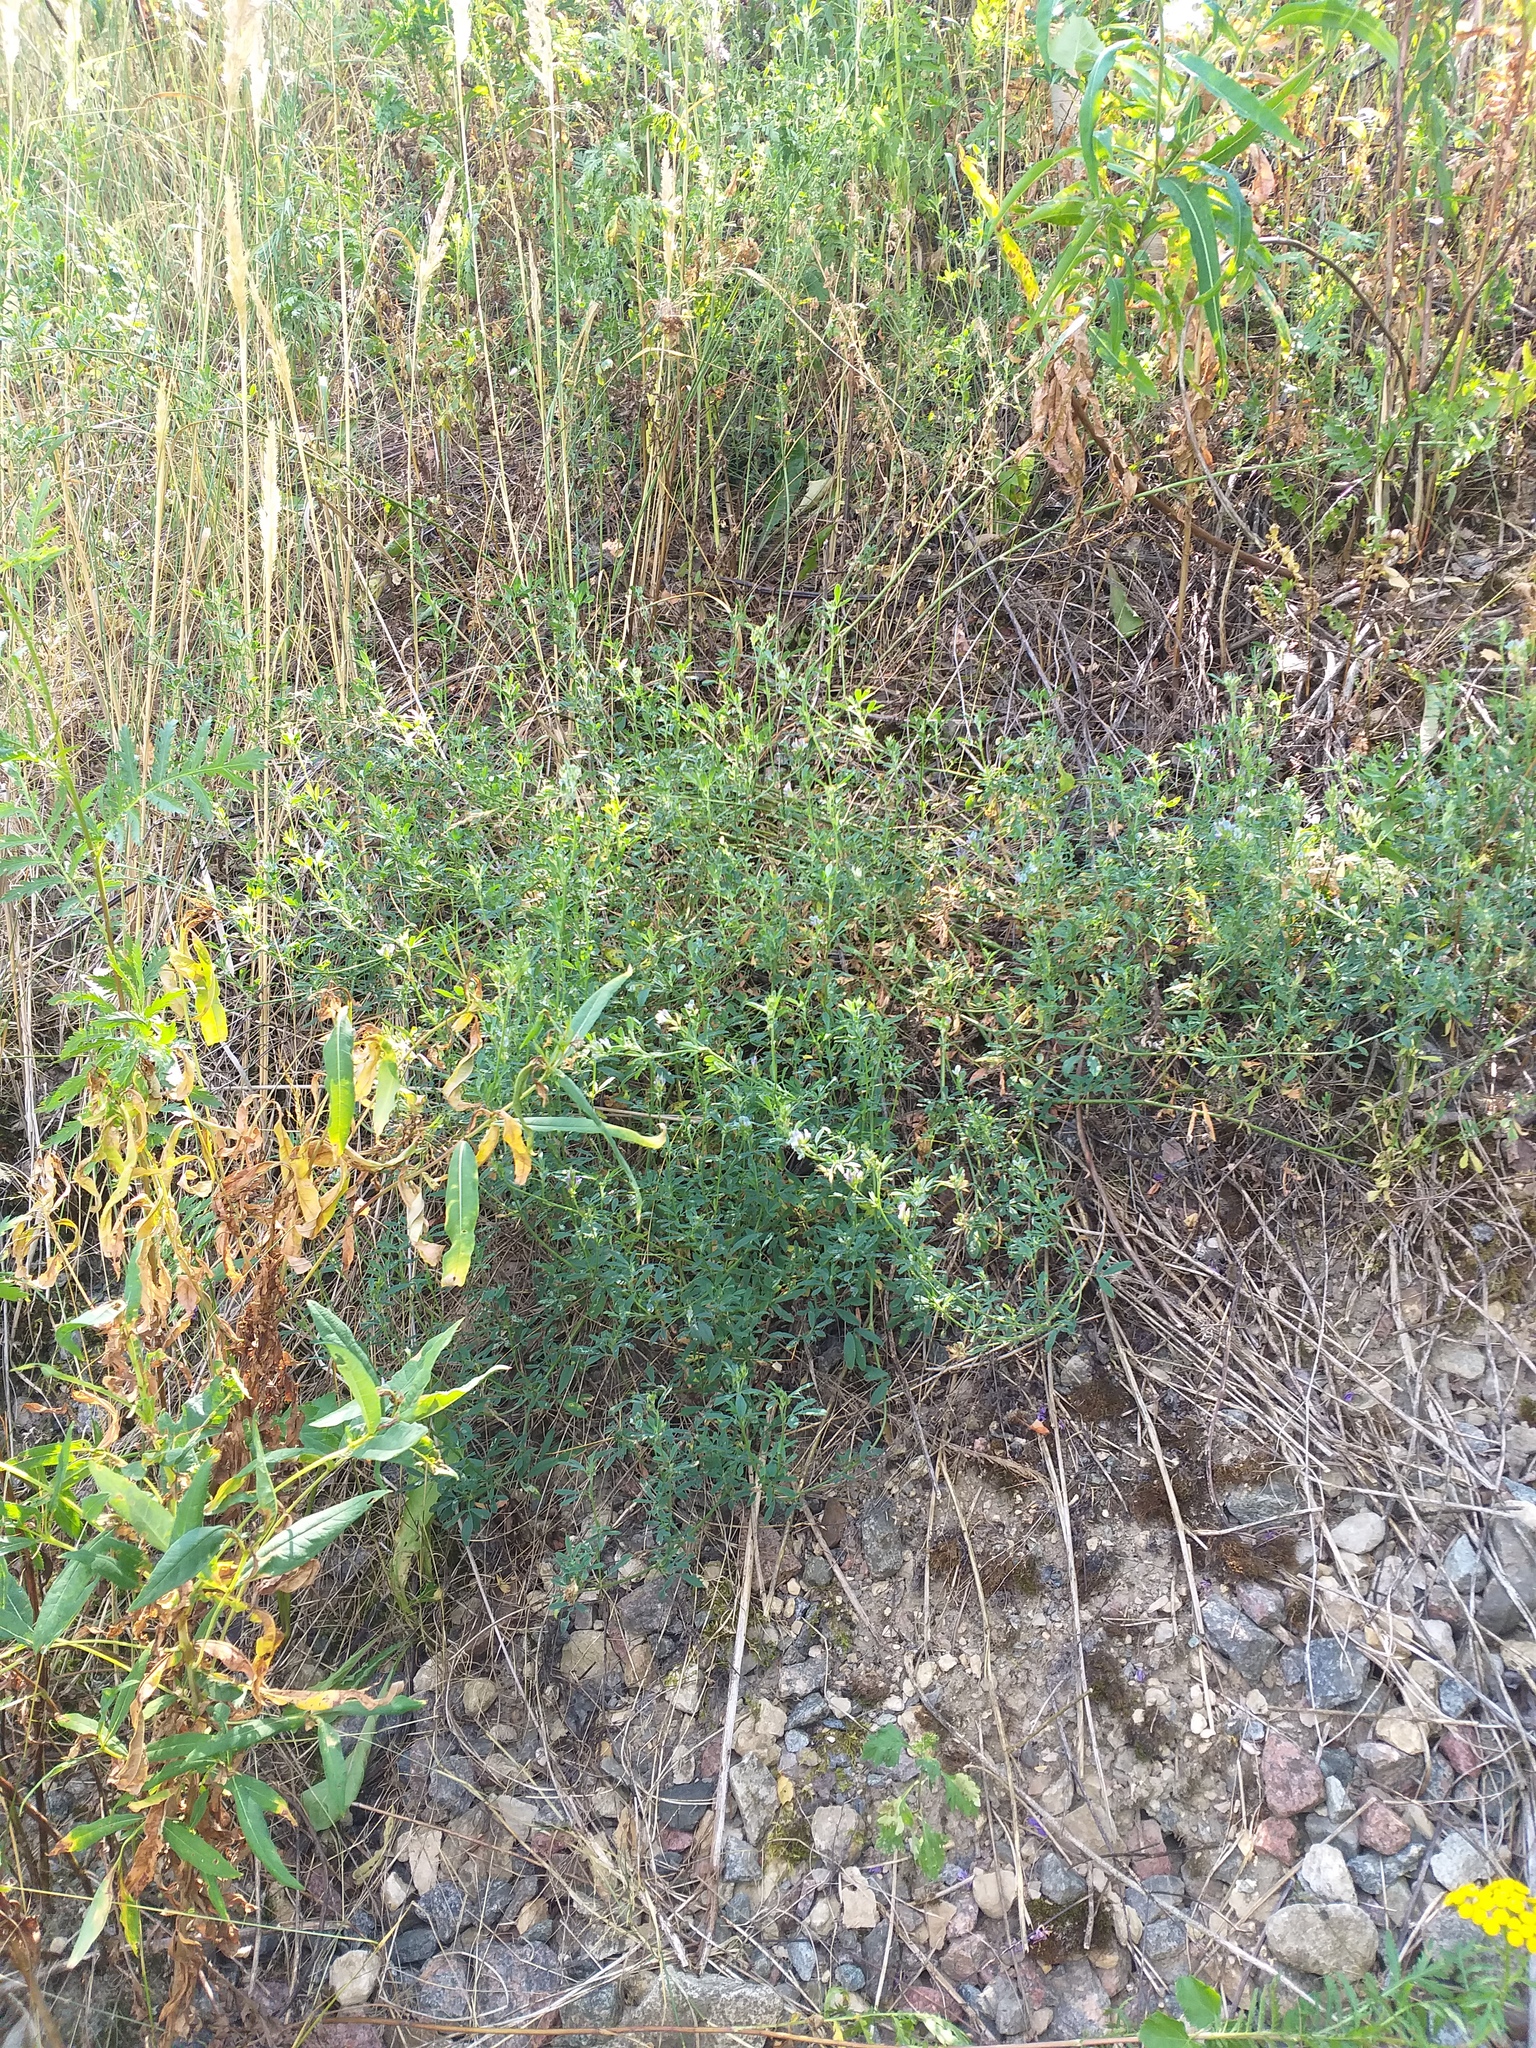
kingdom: Plantae
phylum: Tracheophyta
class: Magnoliopsida
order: Fabales
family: Fabaceae
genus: Medicago
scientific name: Medicago varia
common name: Sand lucerne
